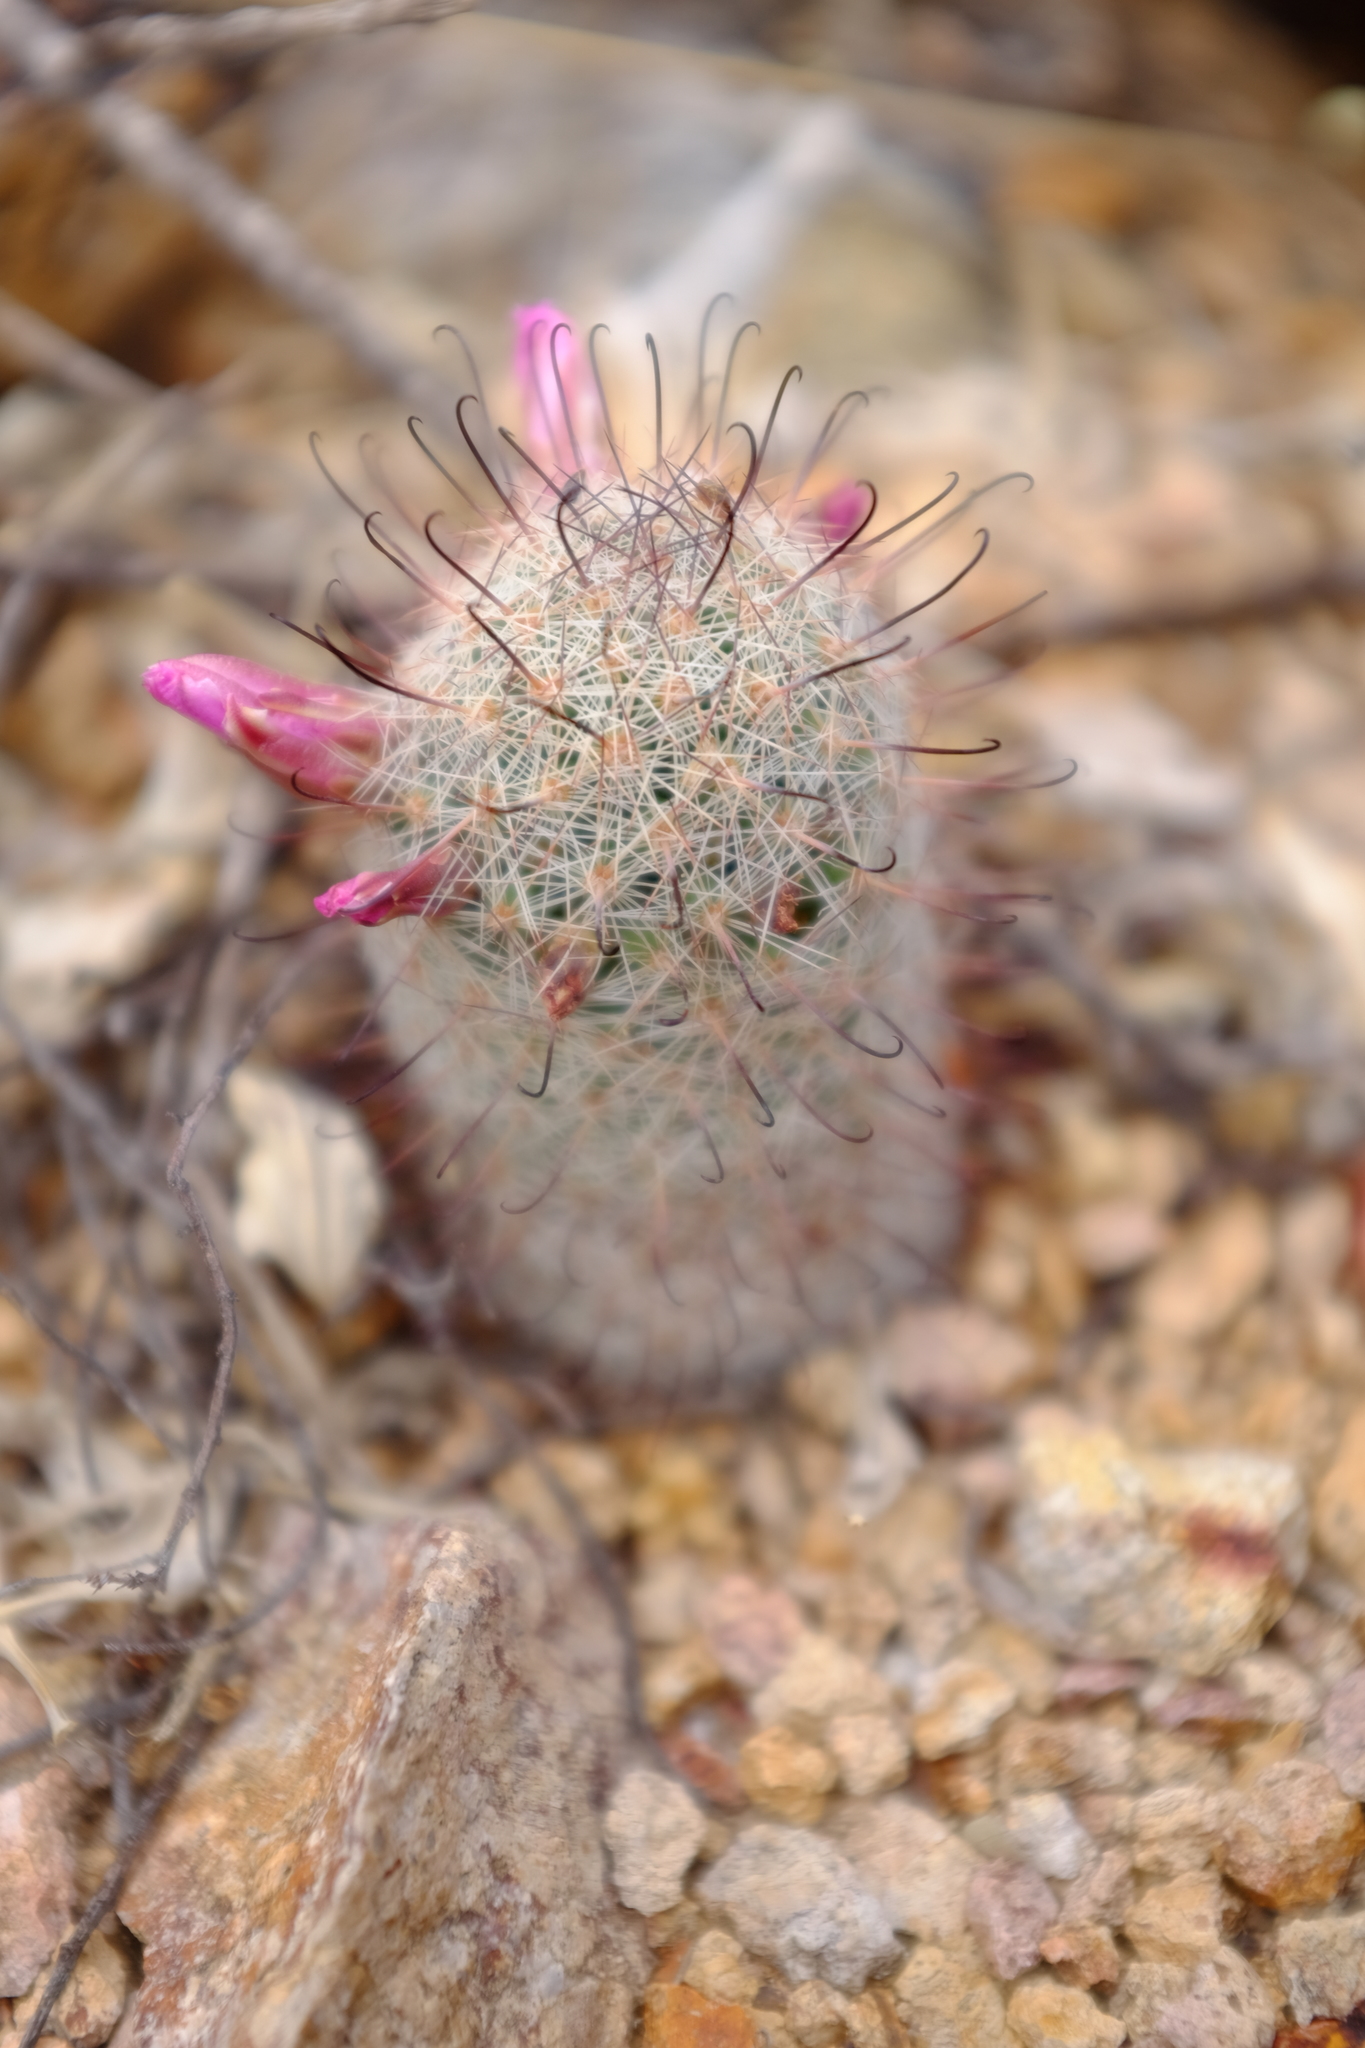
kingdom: Plantae
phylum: Tracheophyta
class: Magnoliopsida
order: Caryophyllales
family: Cactaceae
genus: Cochemiea
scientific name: Cochemiea grahamii
